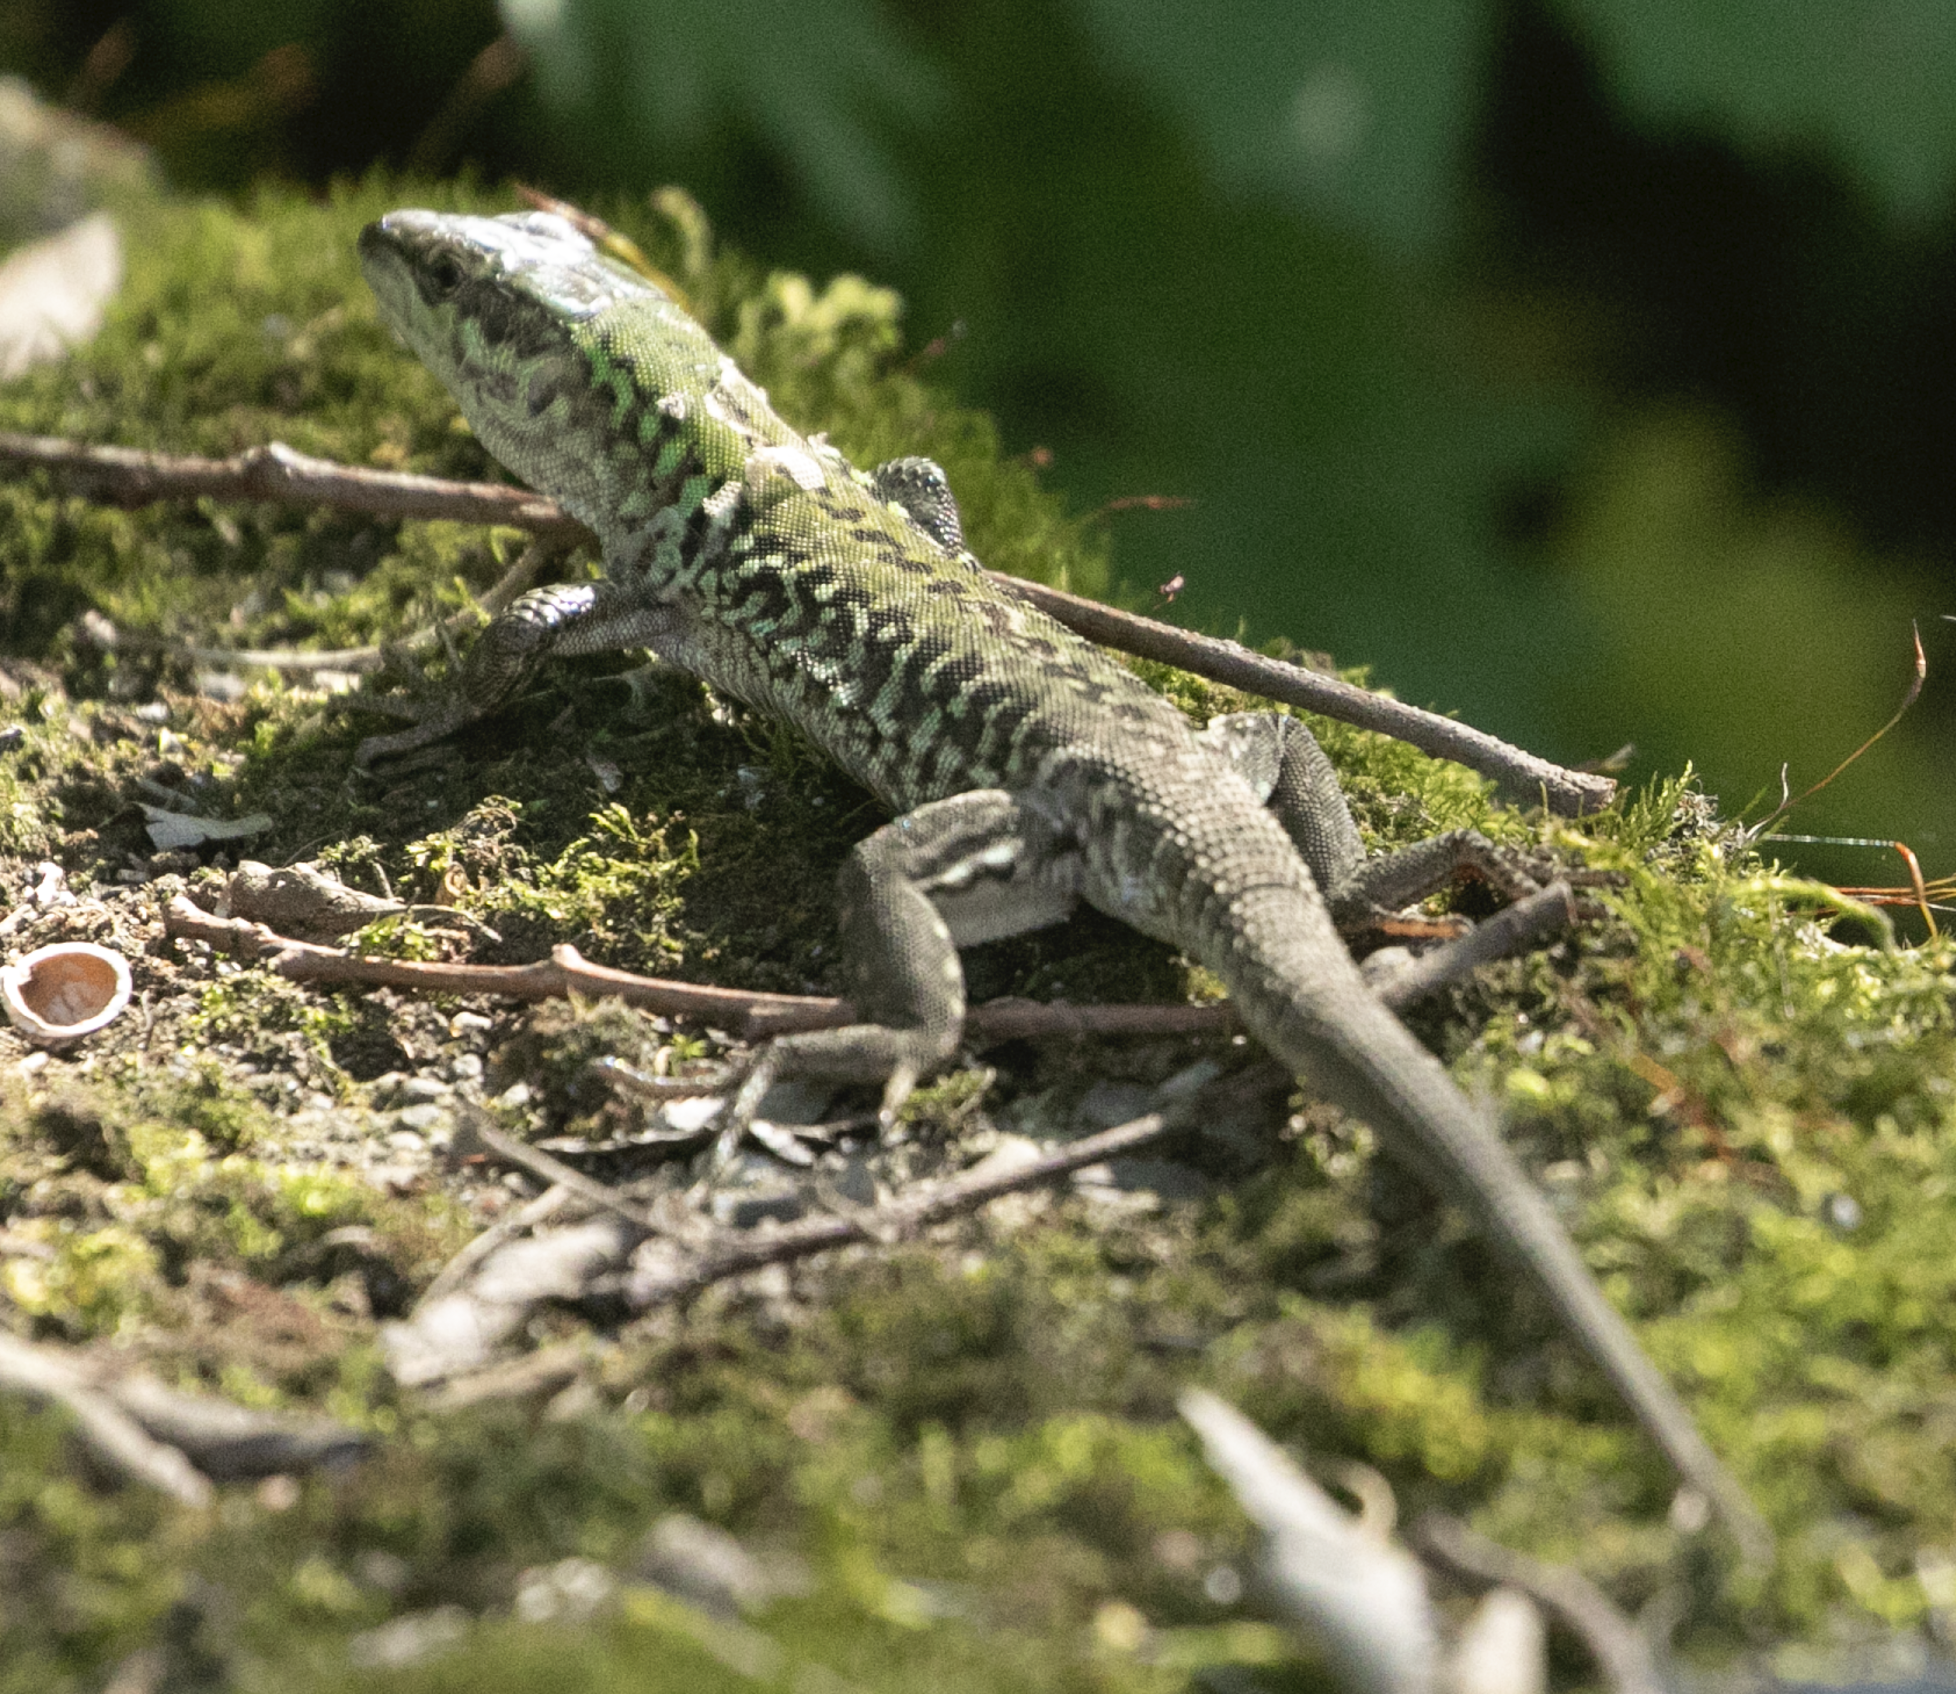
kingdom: Animalia
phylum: Chordata
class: Squamata
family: Lacertidae
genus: Podarcis
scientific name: Podarcis siculus
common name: Italian wall lizard
